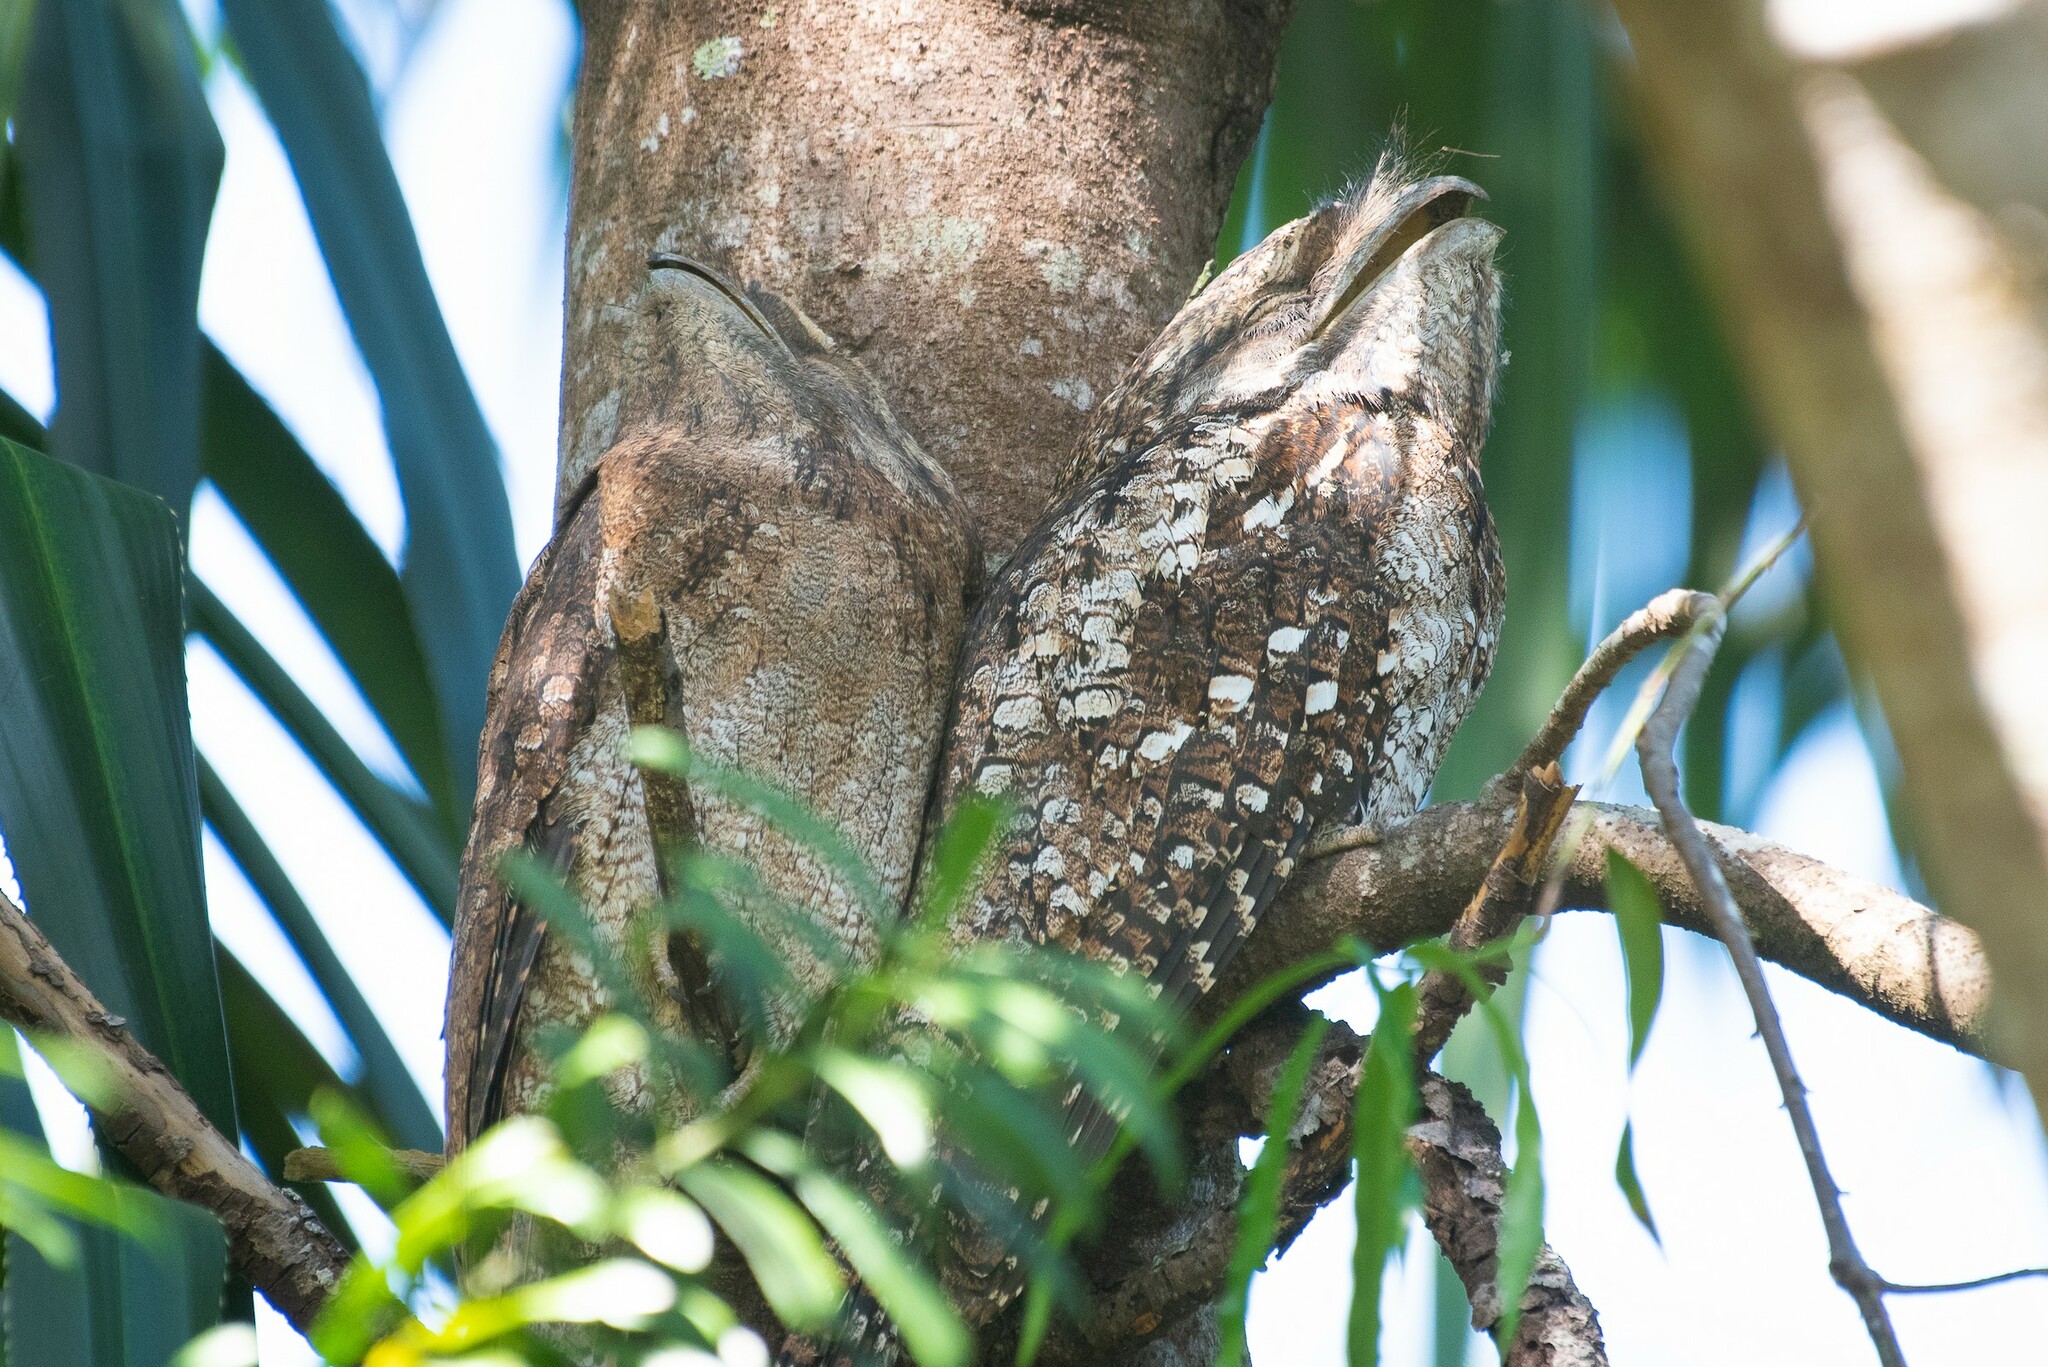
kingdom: Animalia
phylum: Chordata
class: Aves
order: Caprimulgiformes
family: Podargidae
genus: Podargus
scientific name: Podargus papuensis
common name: Papuan frogmouth
